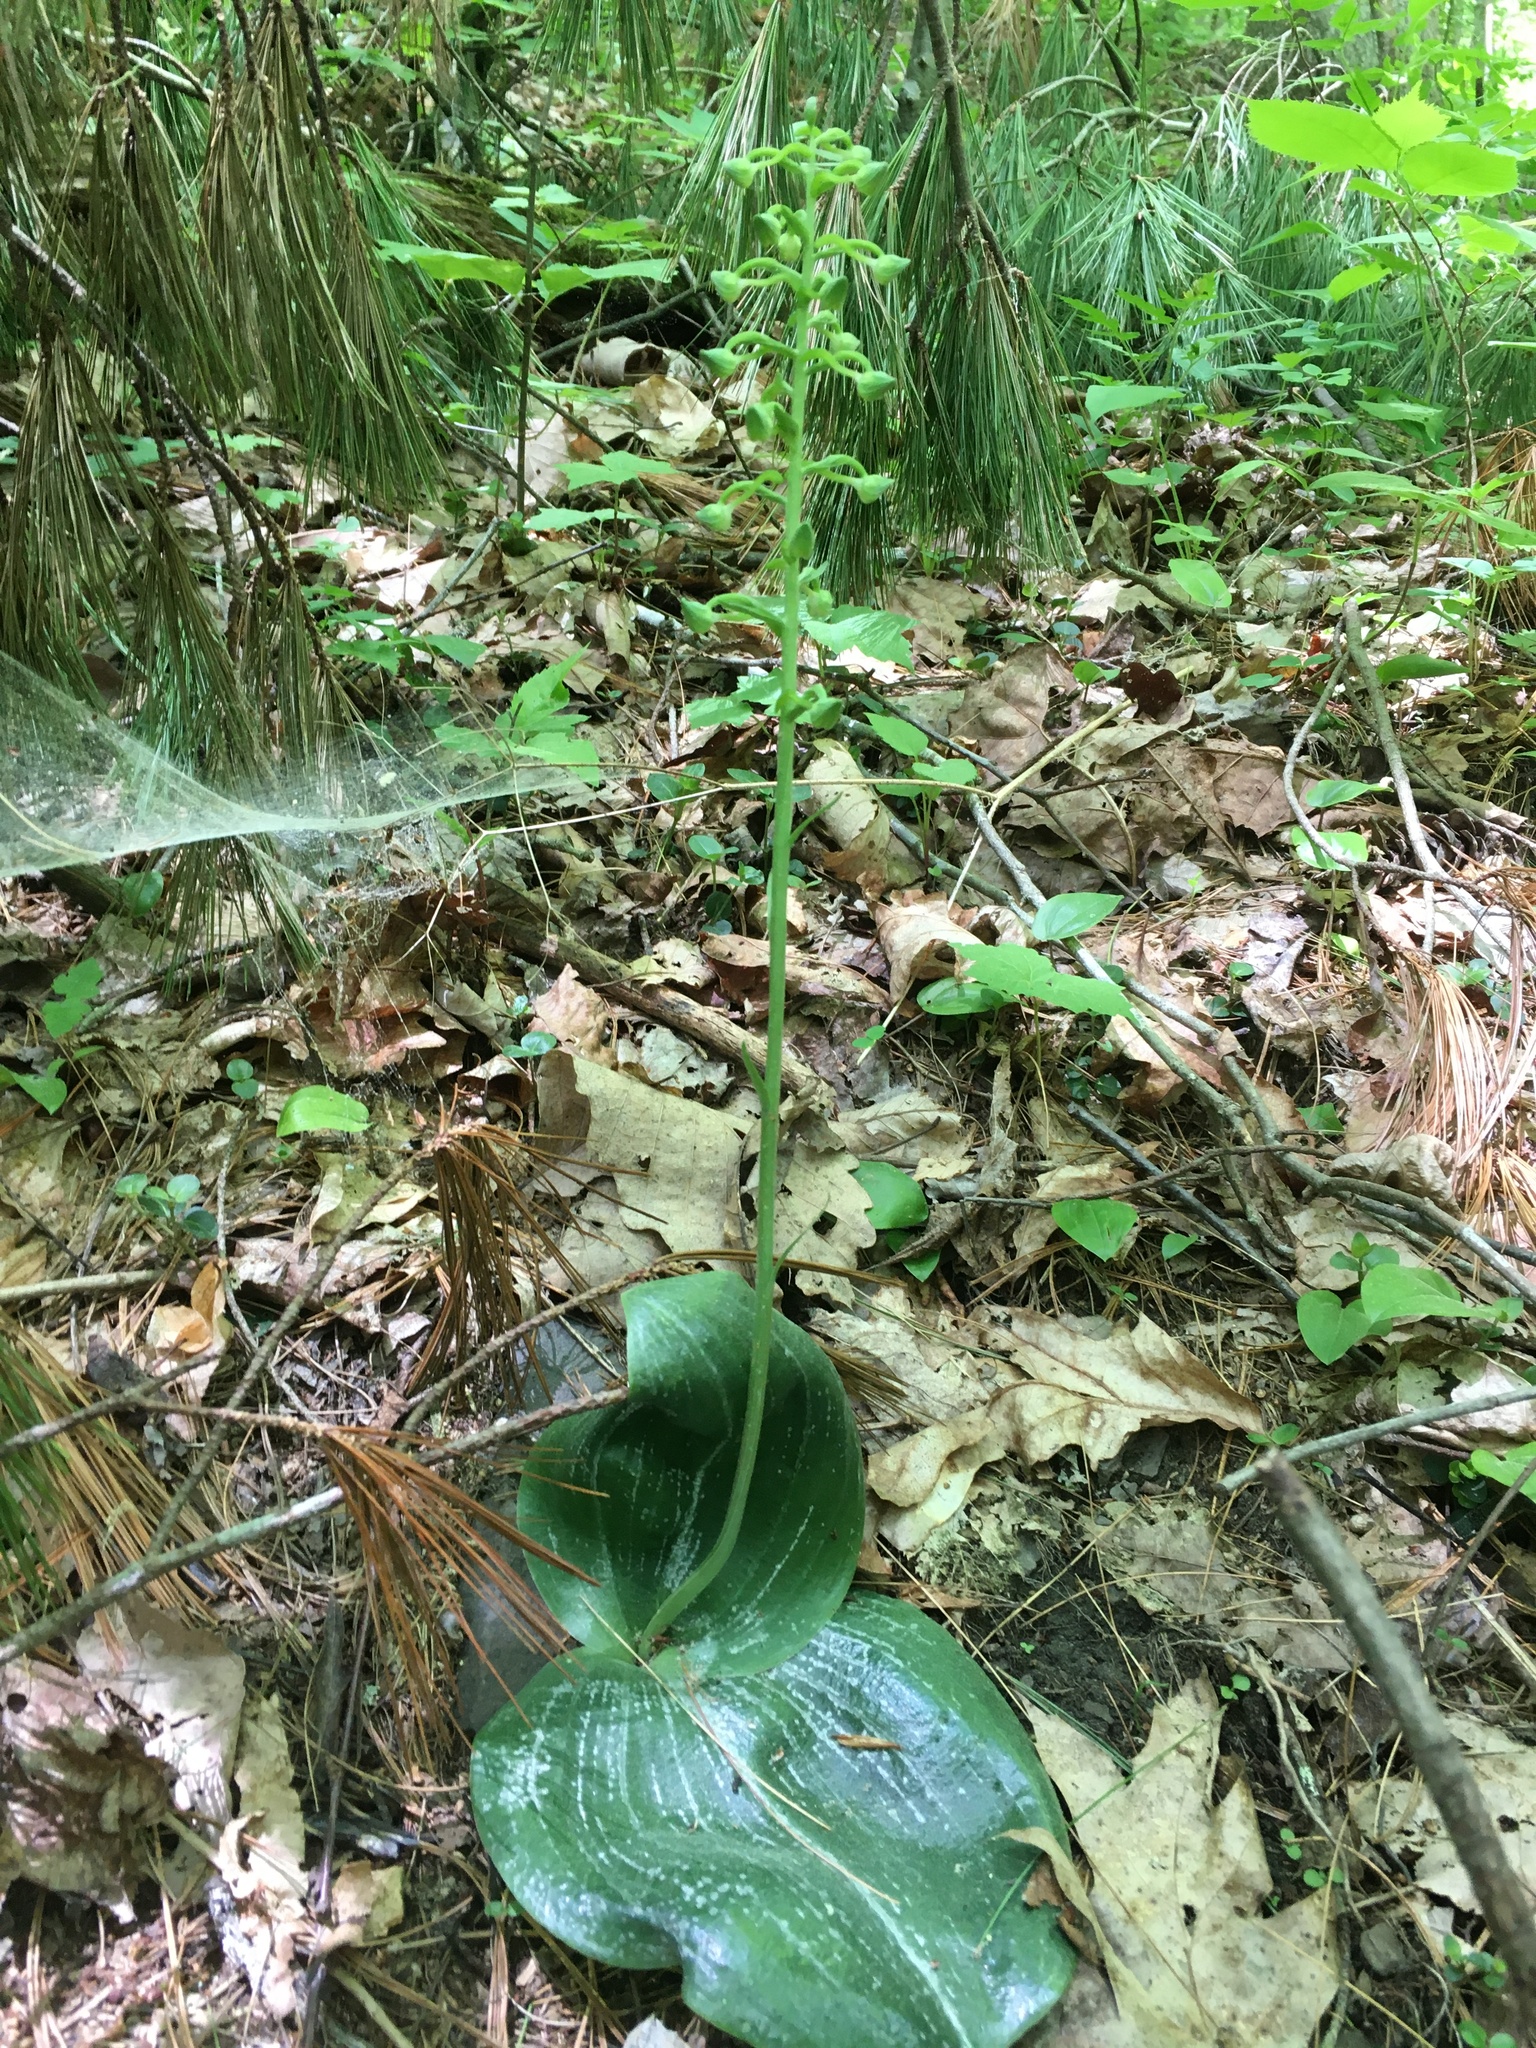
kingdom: Plantae
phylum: Tracheophyta
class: Liliopsida
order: Asparagales
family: Orchidaceae
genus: Platanthera
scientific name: Platanthera orbiculata
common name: Large round-leaved orchid
